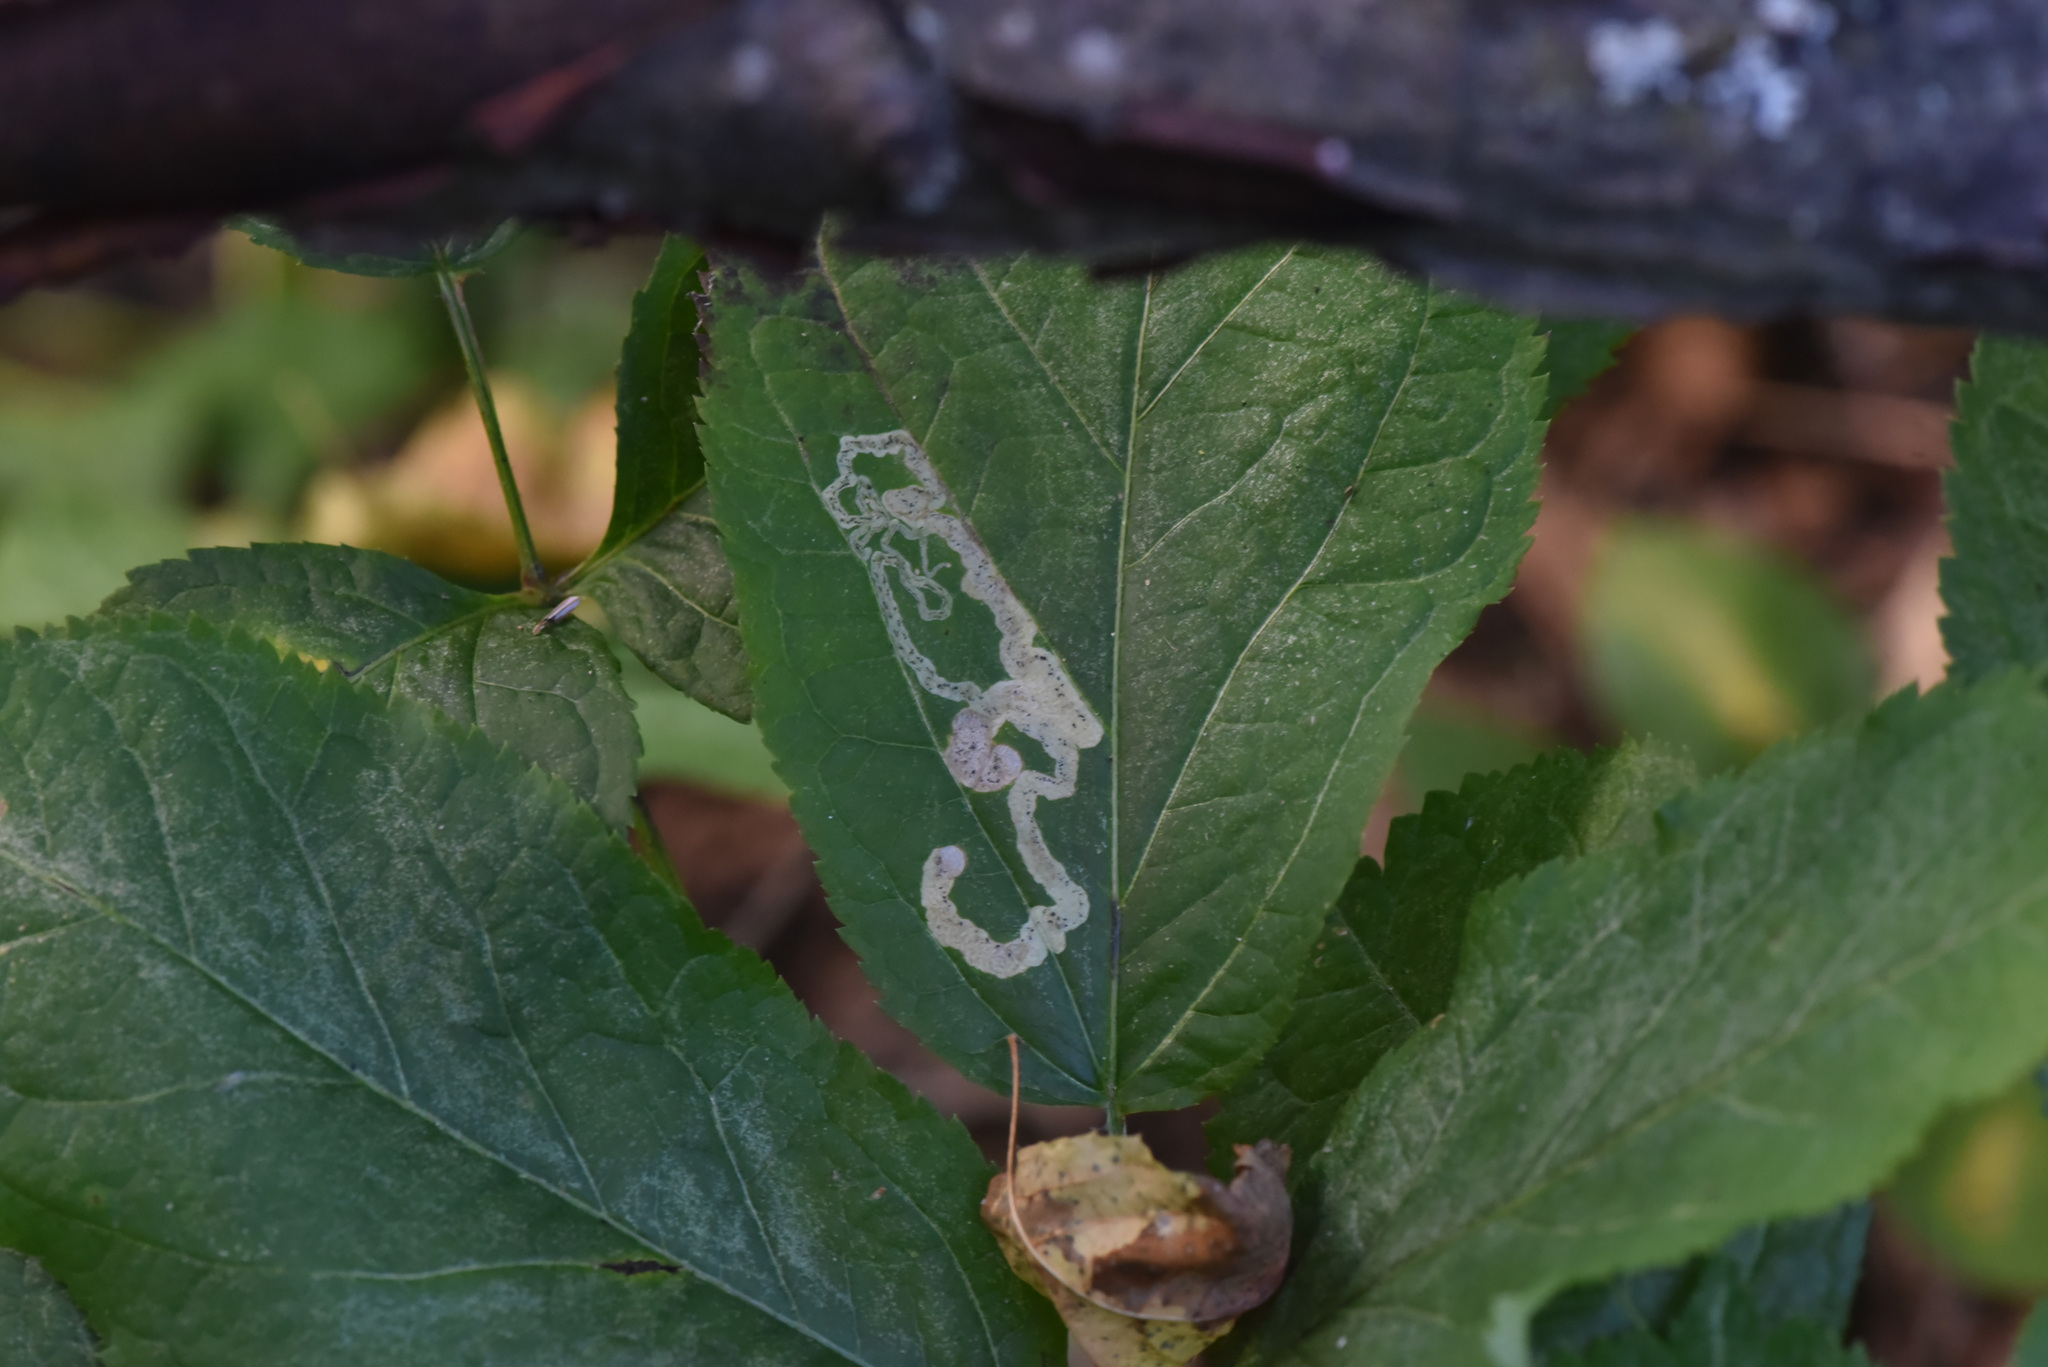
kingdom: Plantae
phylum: Tracheophyta
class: Magnoliopsida
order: Apiales
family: Araliaceae
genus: Aralia
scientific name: Aralia nudicaulis
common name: Wild sarsaparilla
